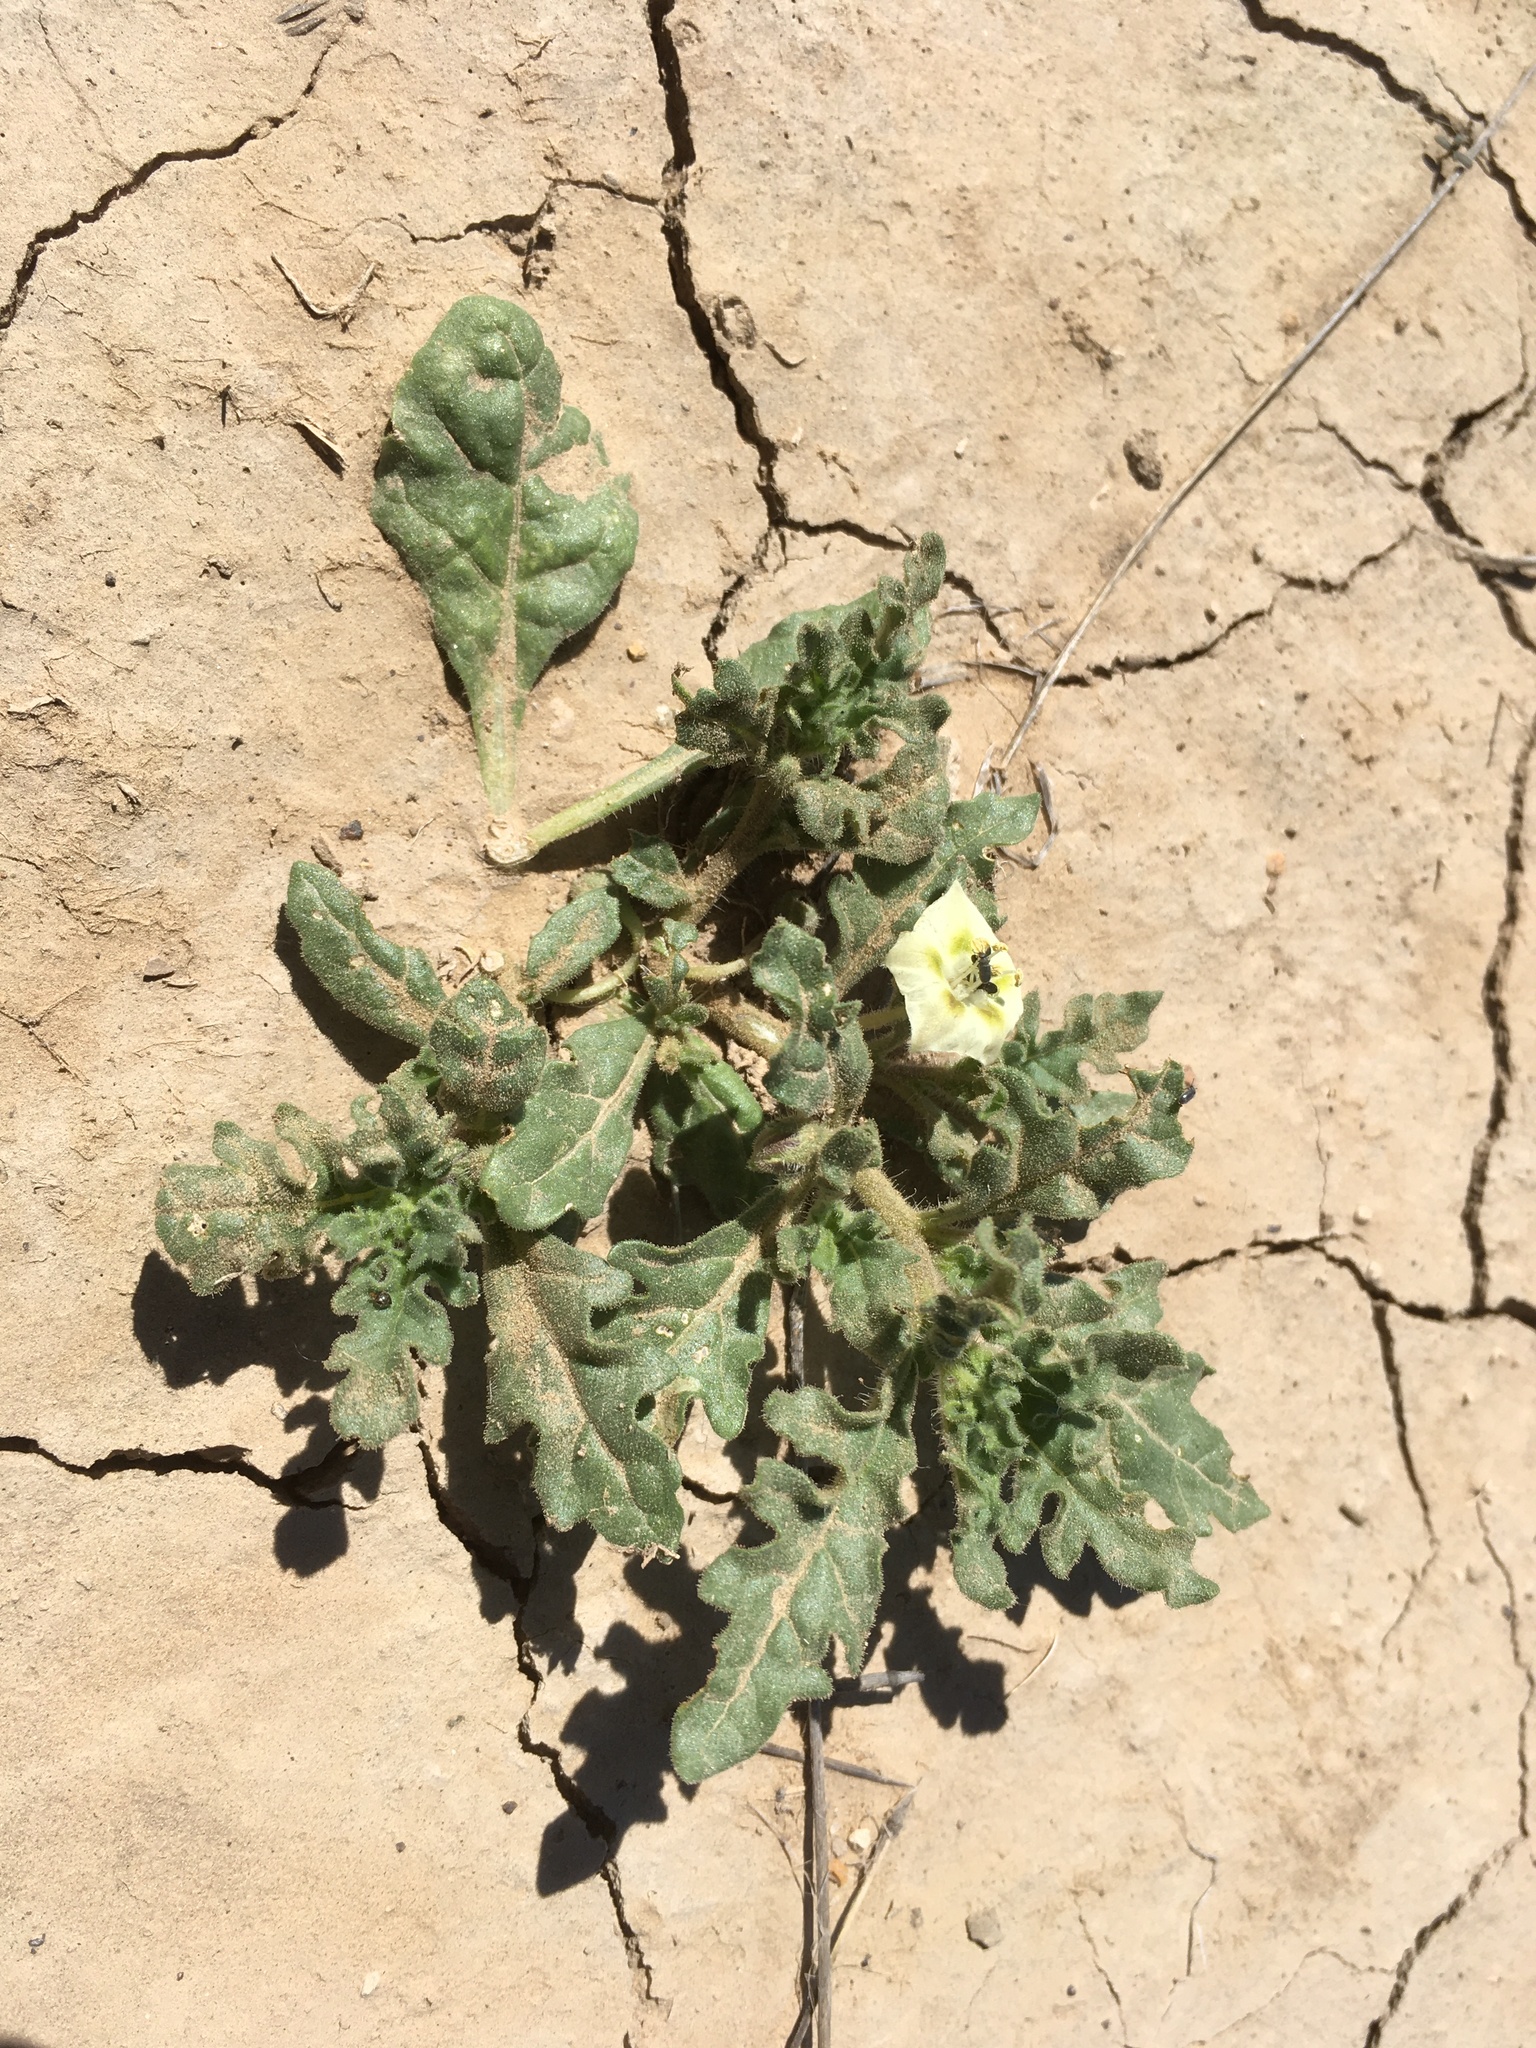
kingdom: Plantae
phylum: Tracheophyta
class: Magnoliopsida
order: Solanales
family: Solanaceae
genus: Chamaesaracha
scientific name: Chamaesaracha coniodes
